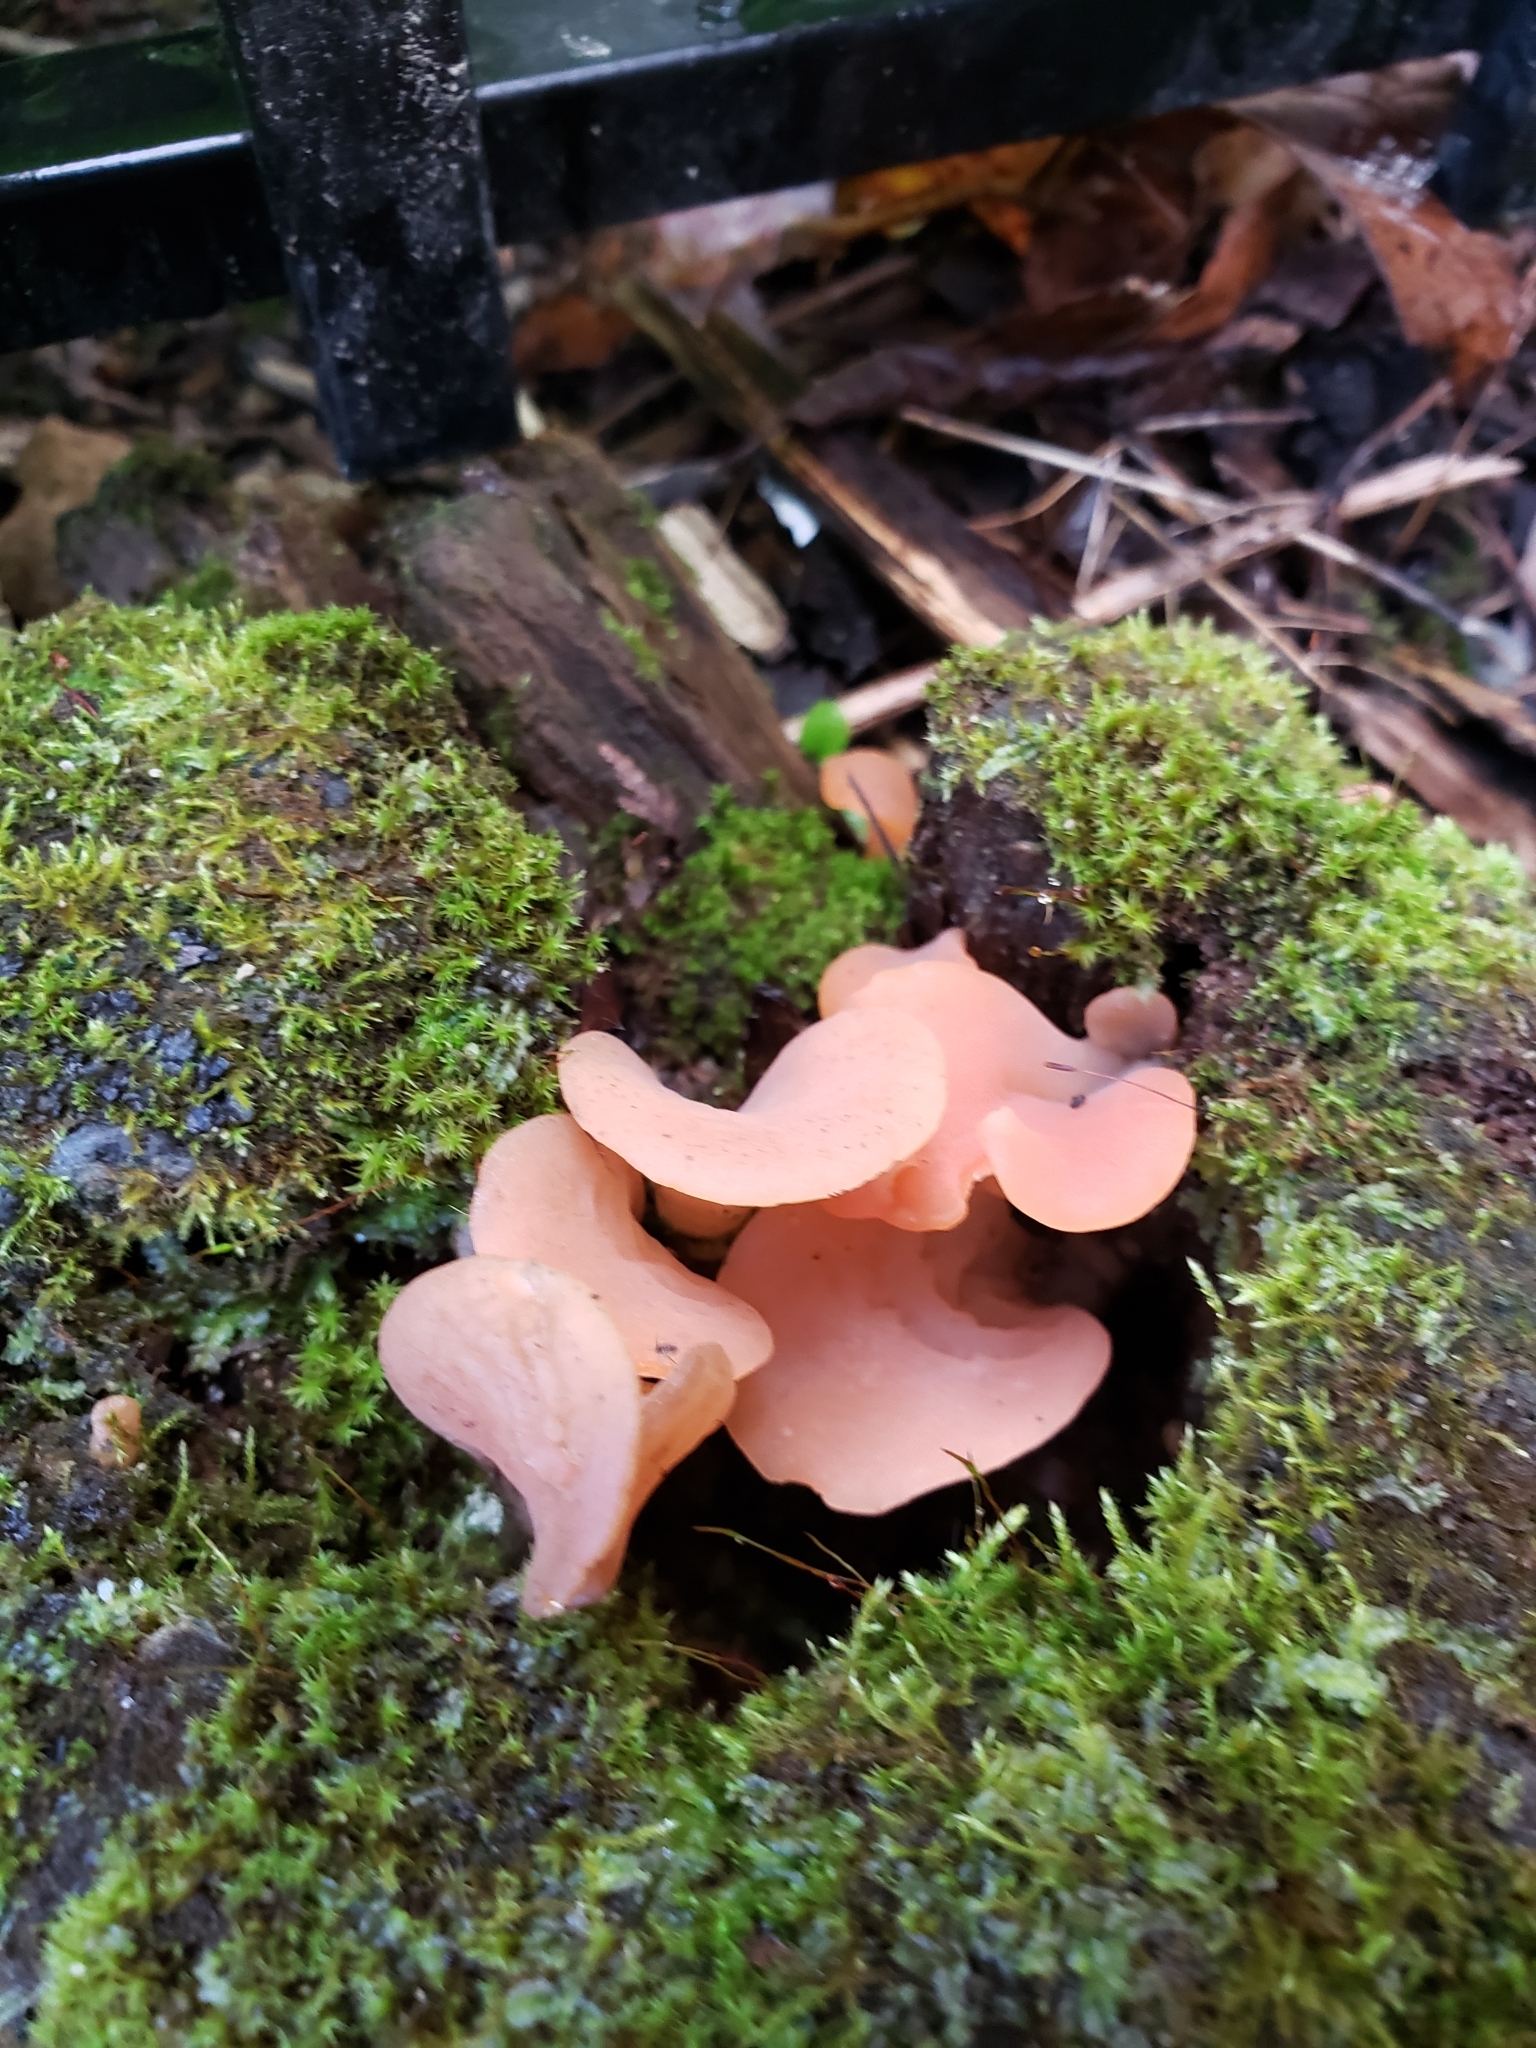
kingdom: Fungi
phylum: Basidiomycota
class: Agaricomycetes
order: Auriculariales
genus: Guepinia
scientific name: Guepinia helvelloides
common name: Salmon salad
